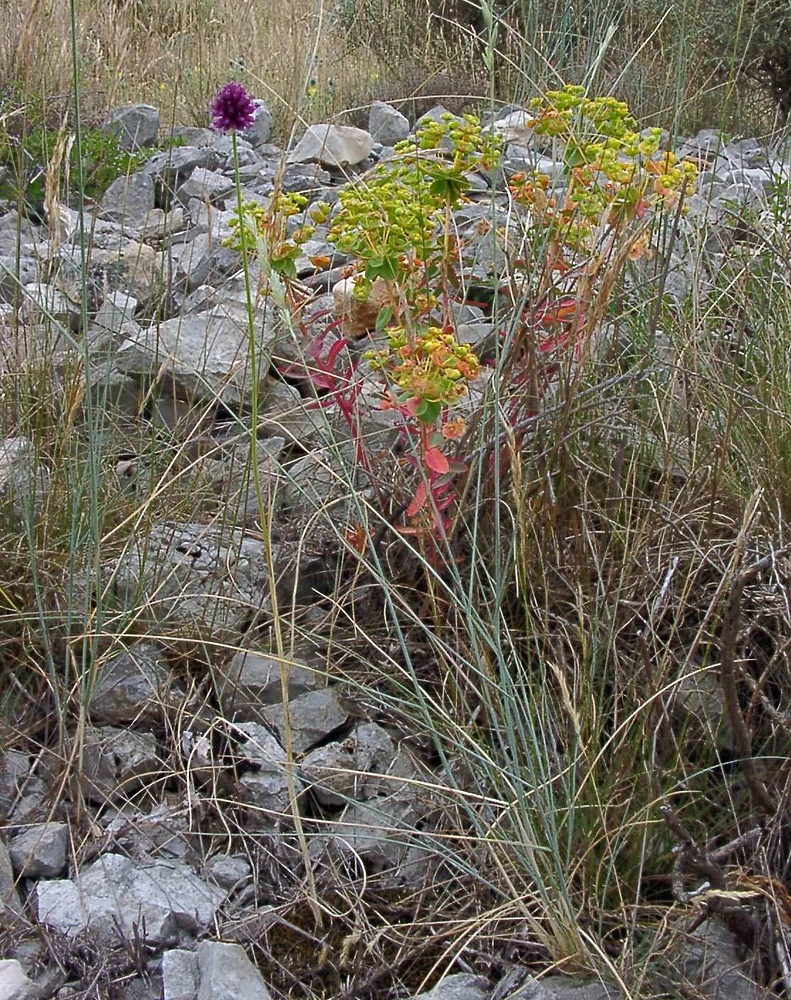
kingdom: Plantae
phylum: Tracheophyta
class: Liliopsida
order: Asparagales
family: Amaryllidaceae
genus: Allium
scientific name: Allium sphaerocephalon
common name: Round-headed leek
